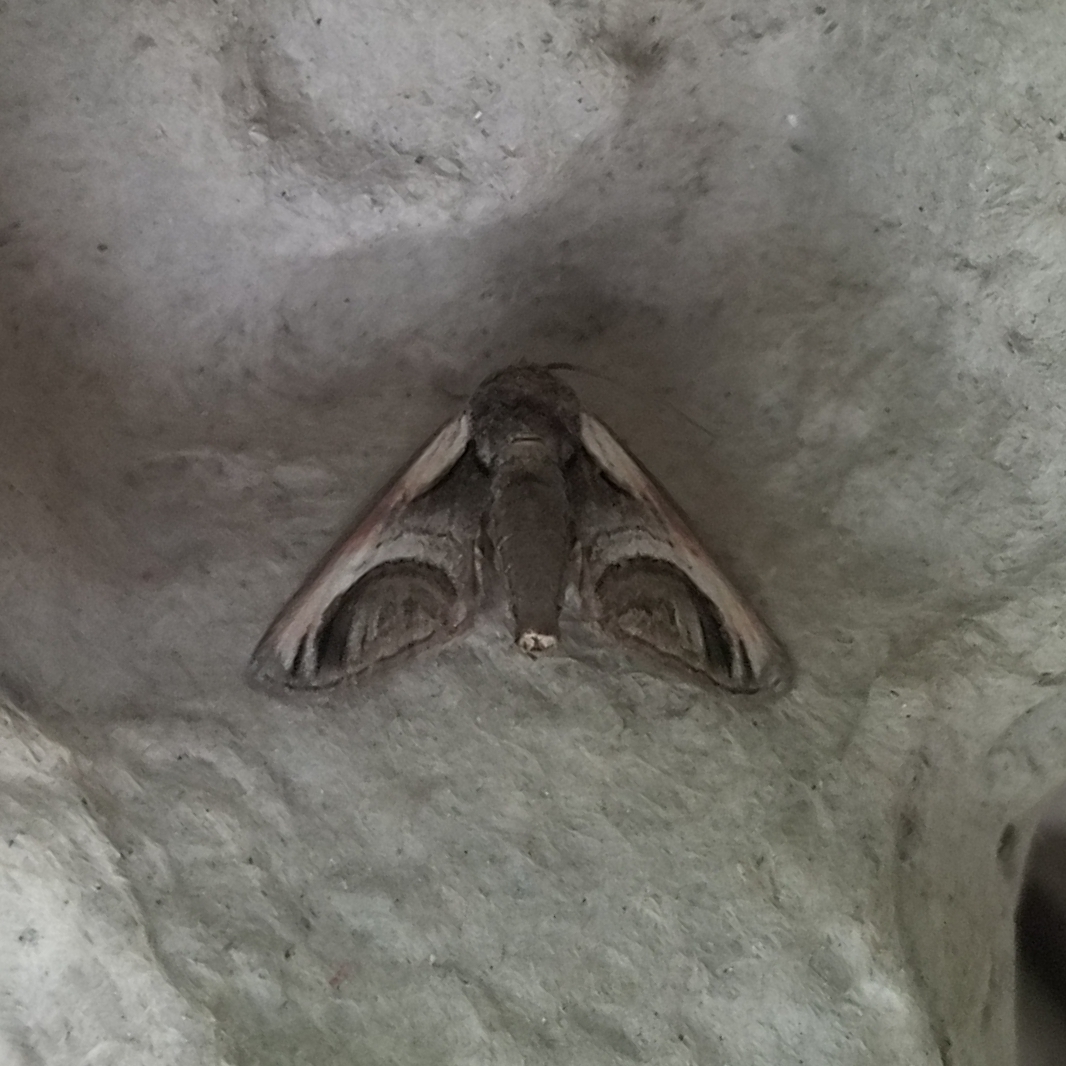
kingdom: Animalia
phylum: Arthropoda
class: Insecta
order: Lepidoptera
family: Euteliidae
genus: Paectes
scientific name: Paectes oculatrix
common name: Eyed paectes moth
